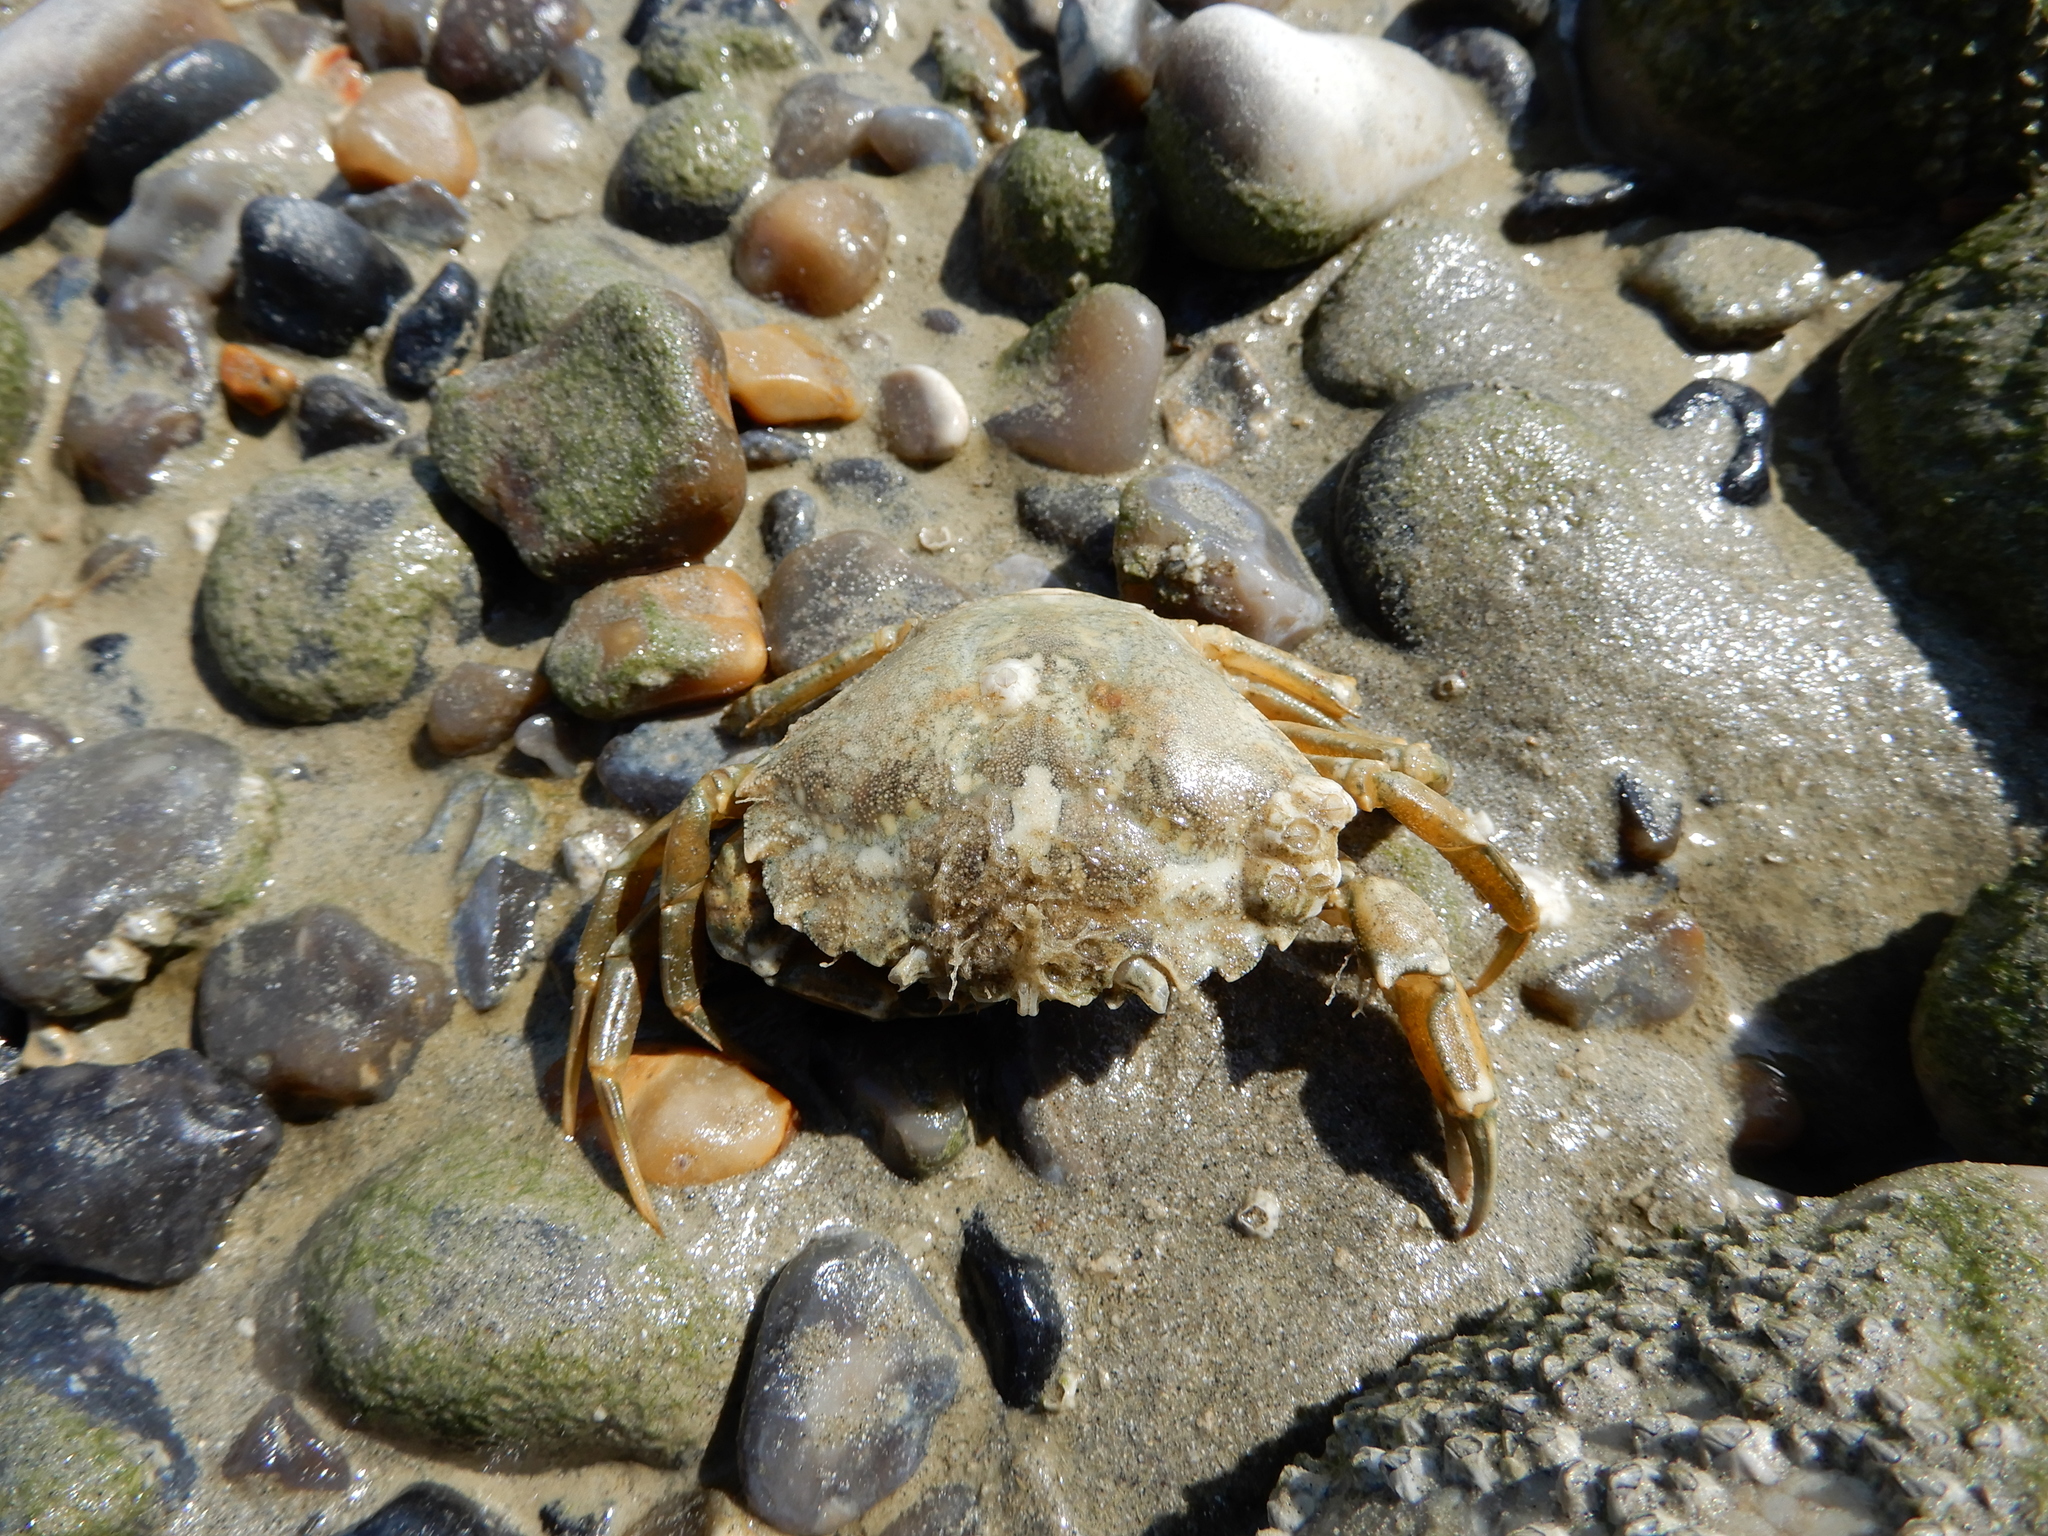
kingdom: Animalia
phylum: Arthropoda
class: Malacostraca
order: Decapoda
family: Carcinidae
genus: Carcinus
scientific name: Carcinus maenas
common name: European green crab
